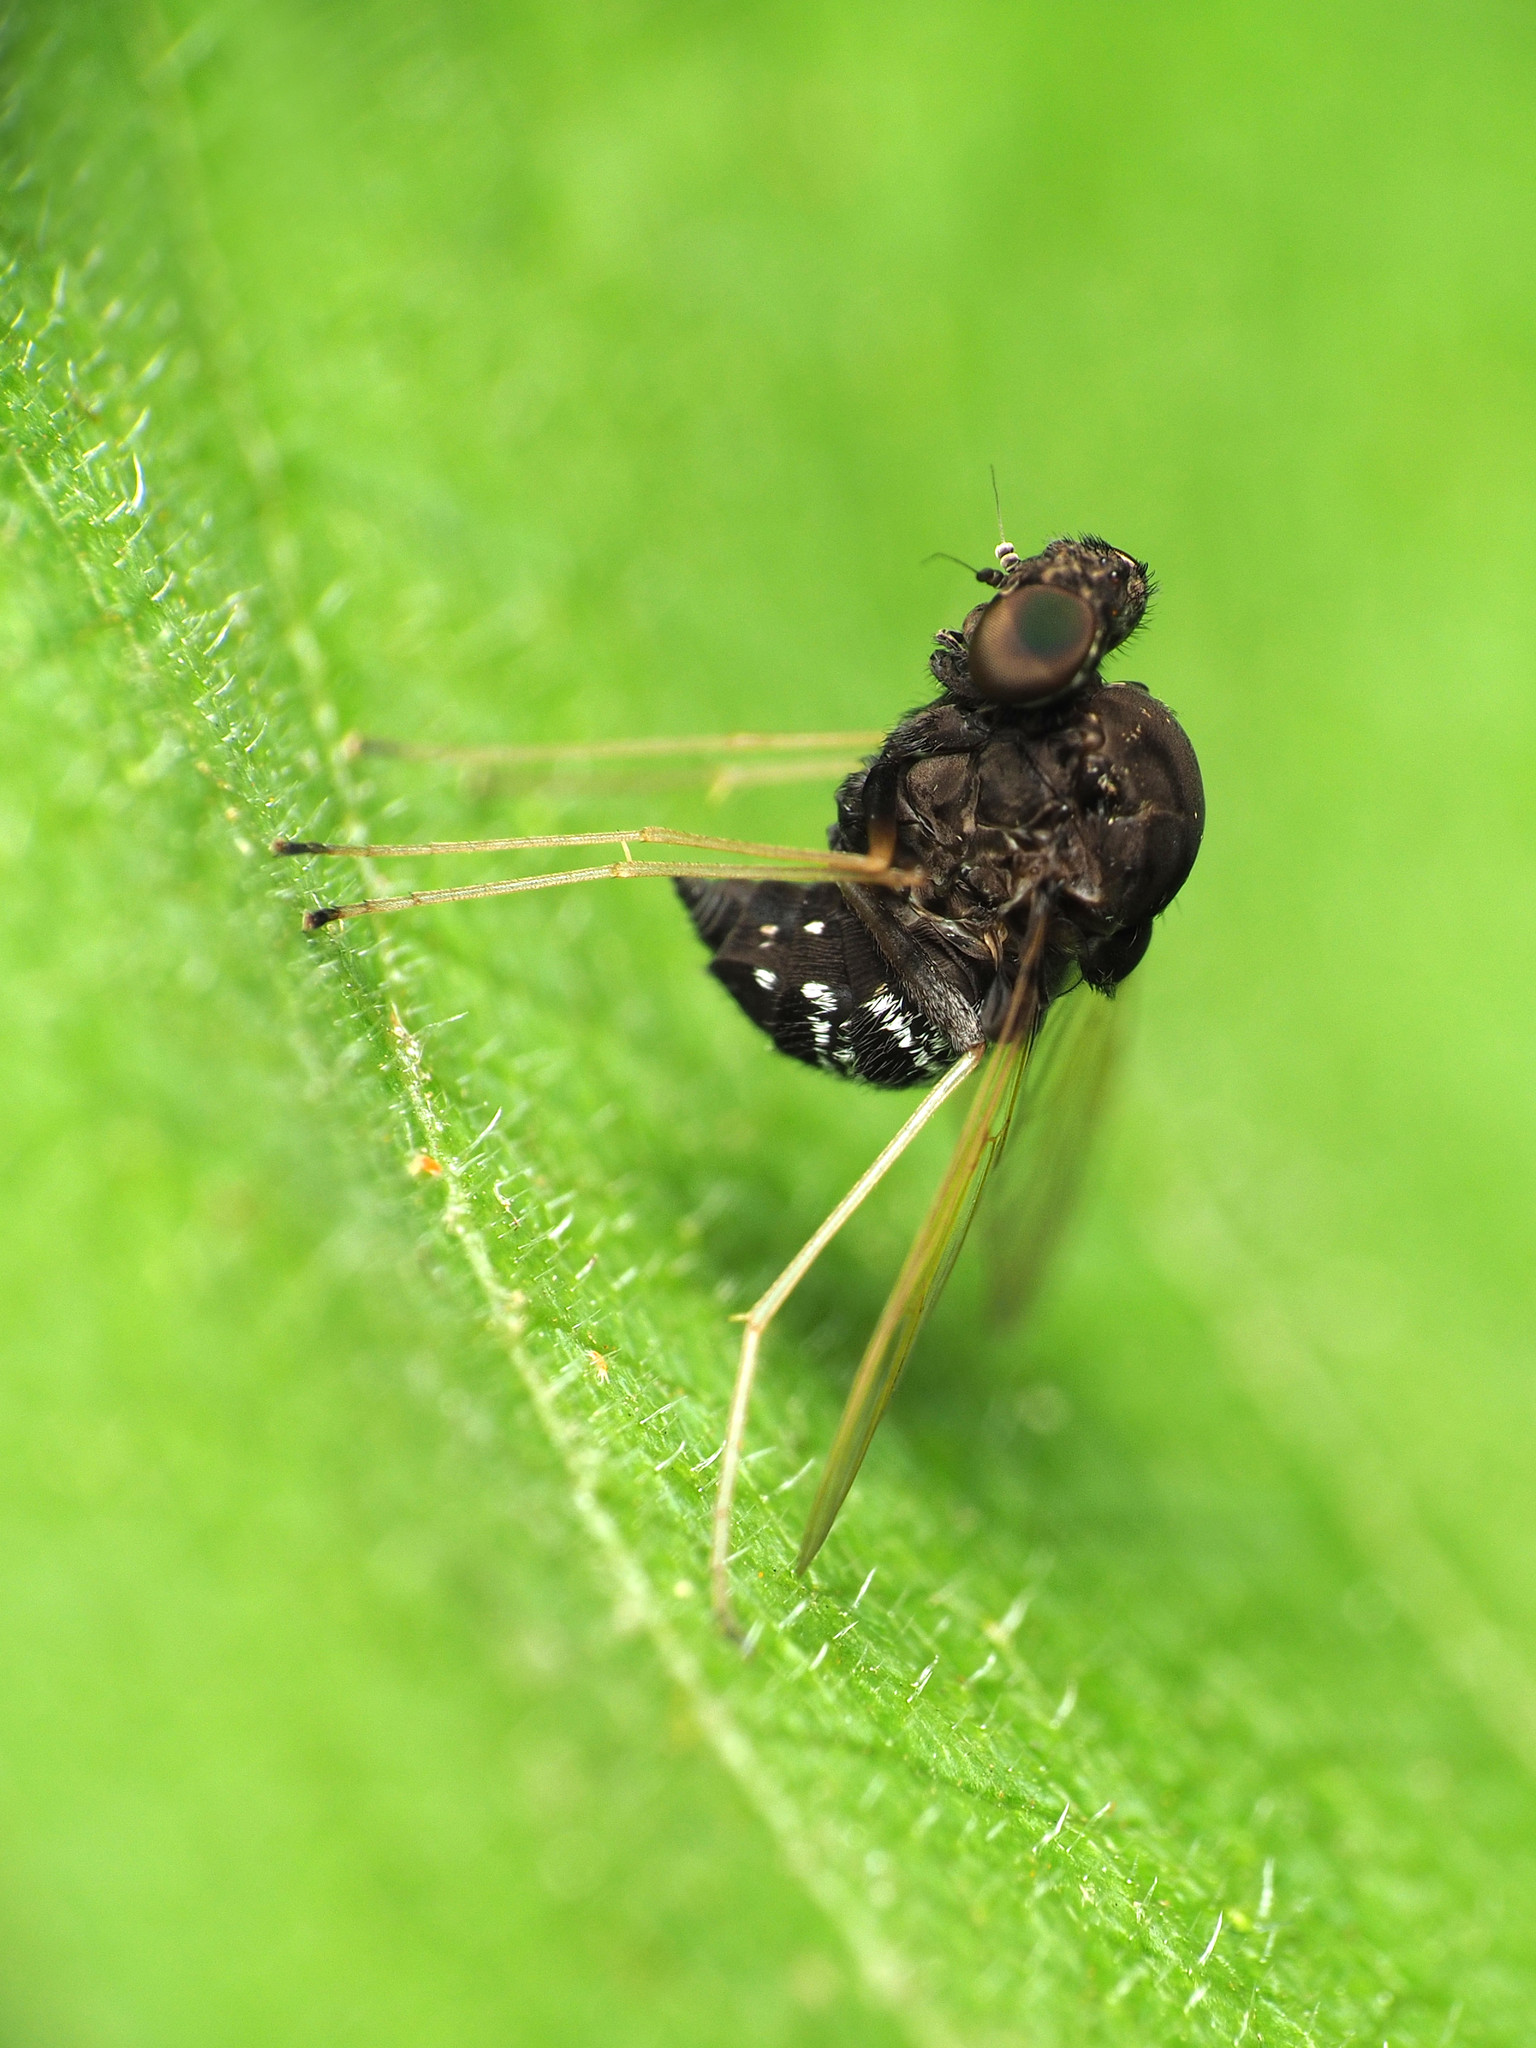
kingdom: Animalia
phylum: Arthropoda
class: Insecta
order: Diptera
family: Rhagionidae
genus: Chrysopilus
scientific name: Chrysopilus basilaris
